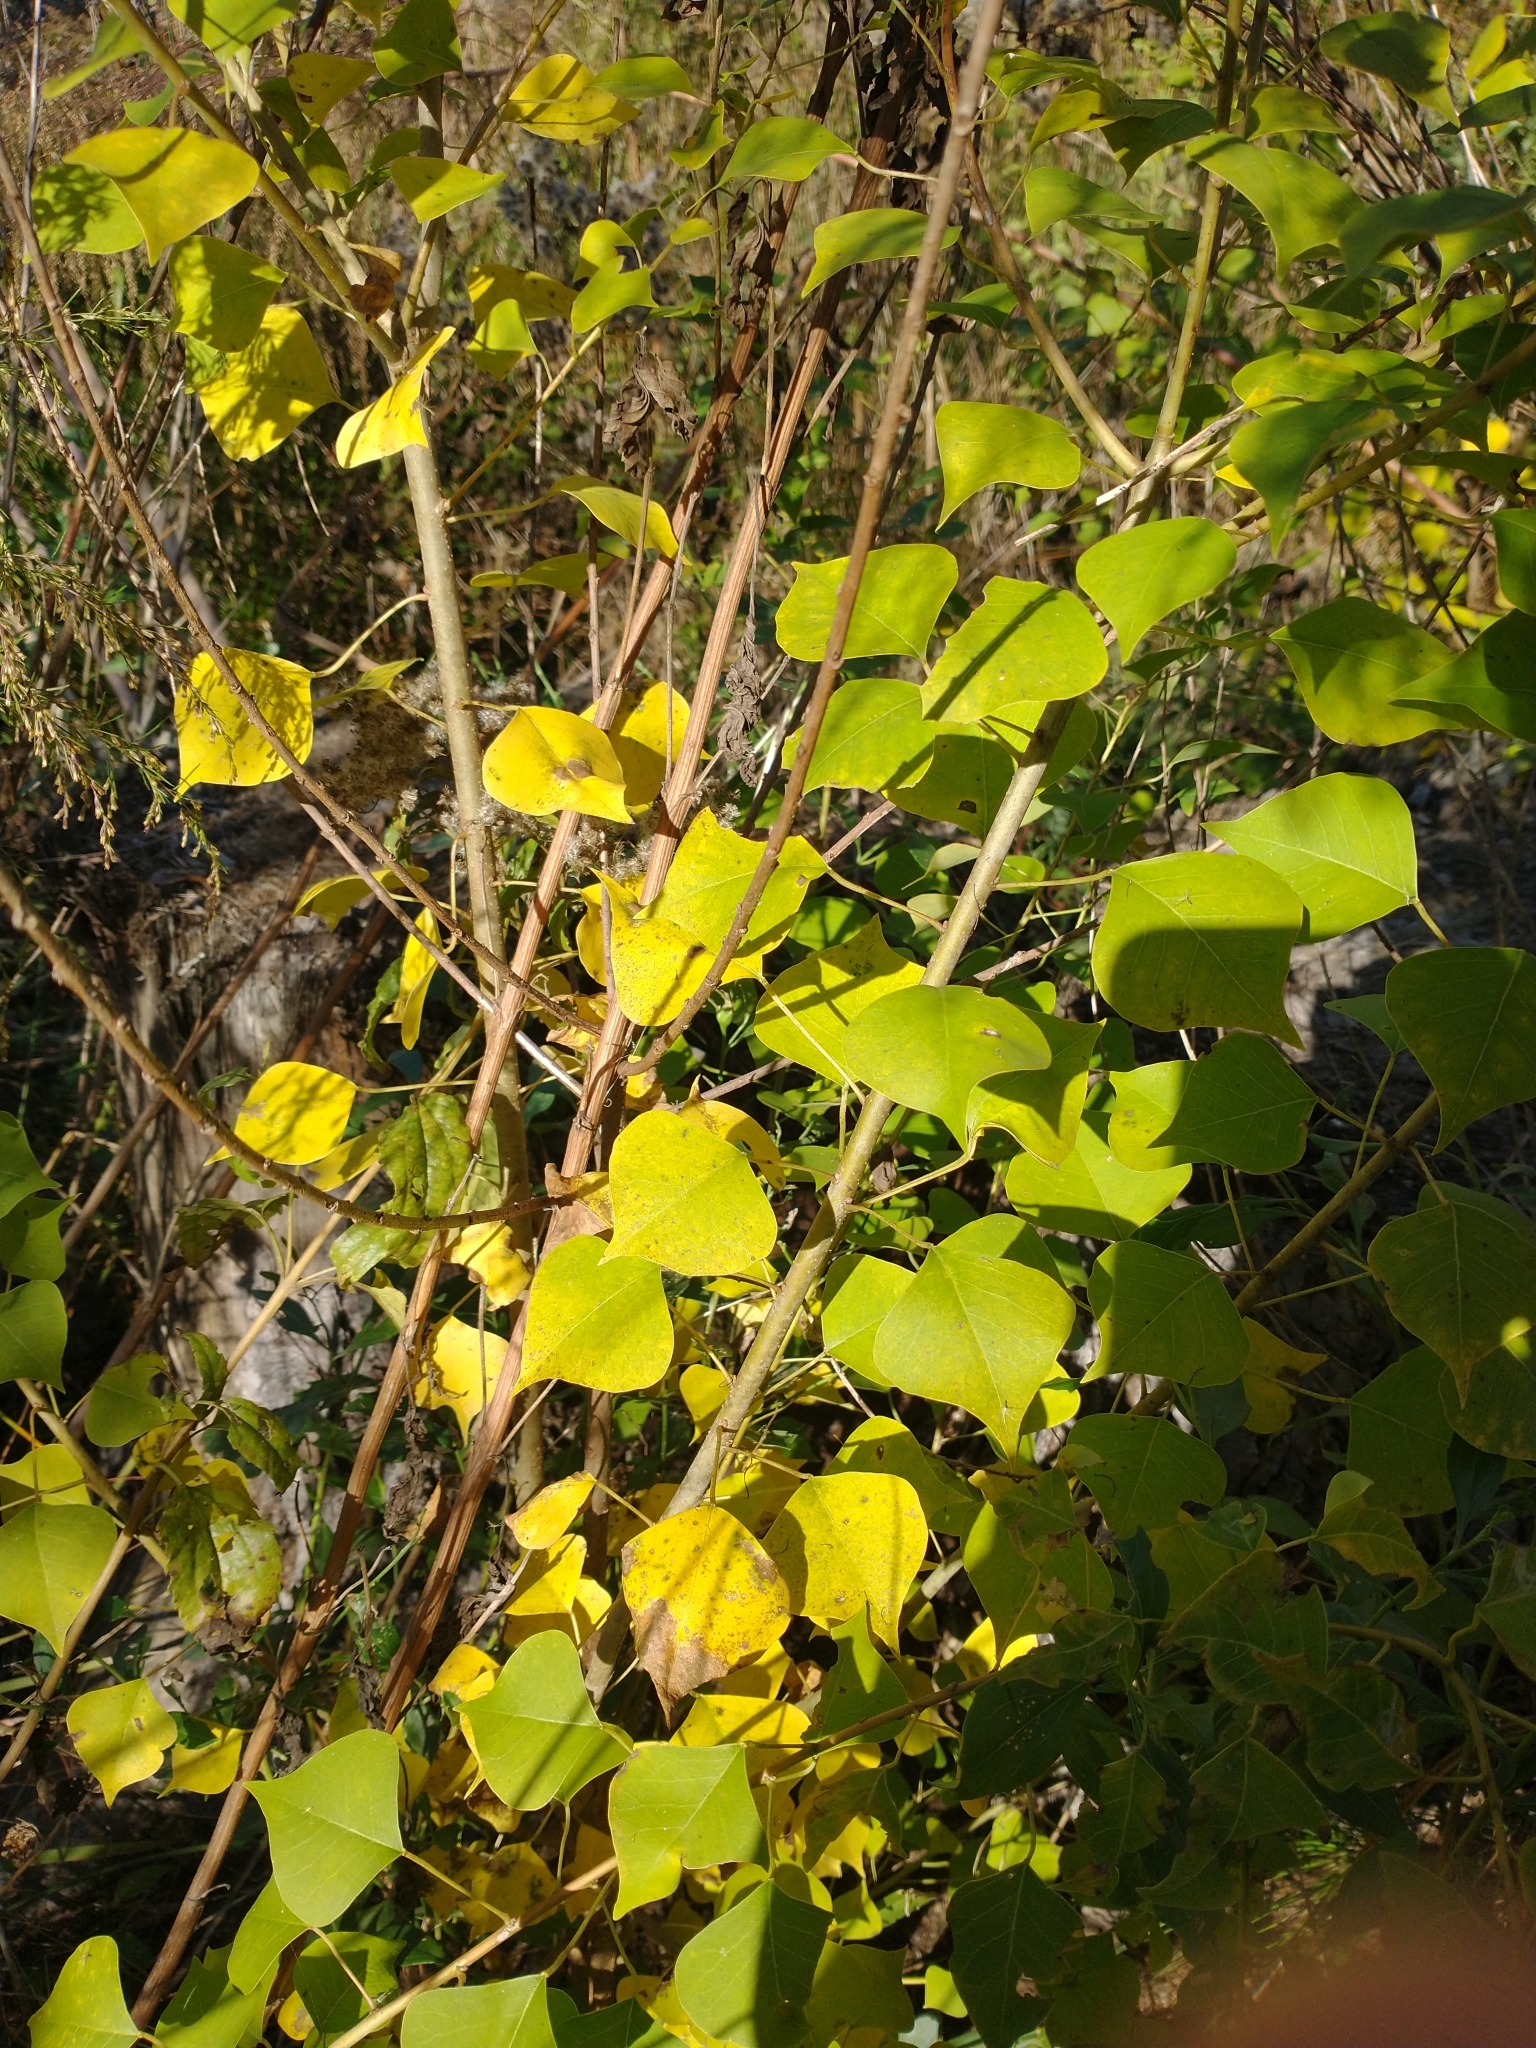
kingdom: Plantae
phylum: Tracheophyta
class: Magnoliopsida
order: Malpighiales
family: Euphorbiaceae
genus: Triadica
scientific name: Triadica sebifera
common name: Chinese tallow
